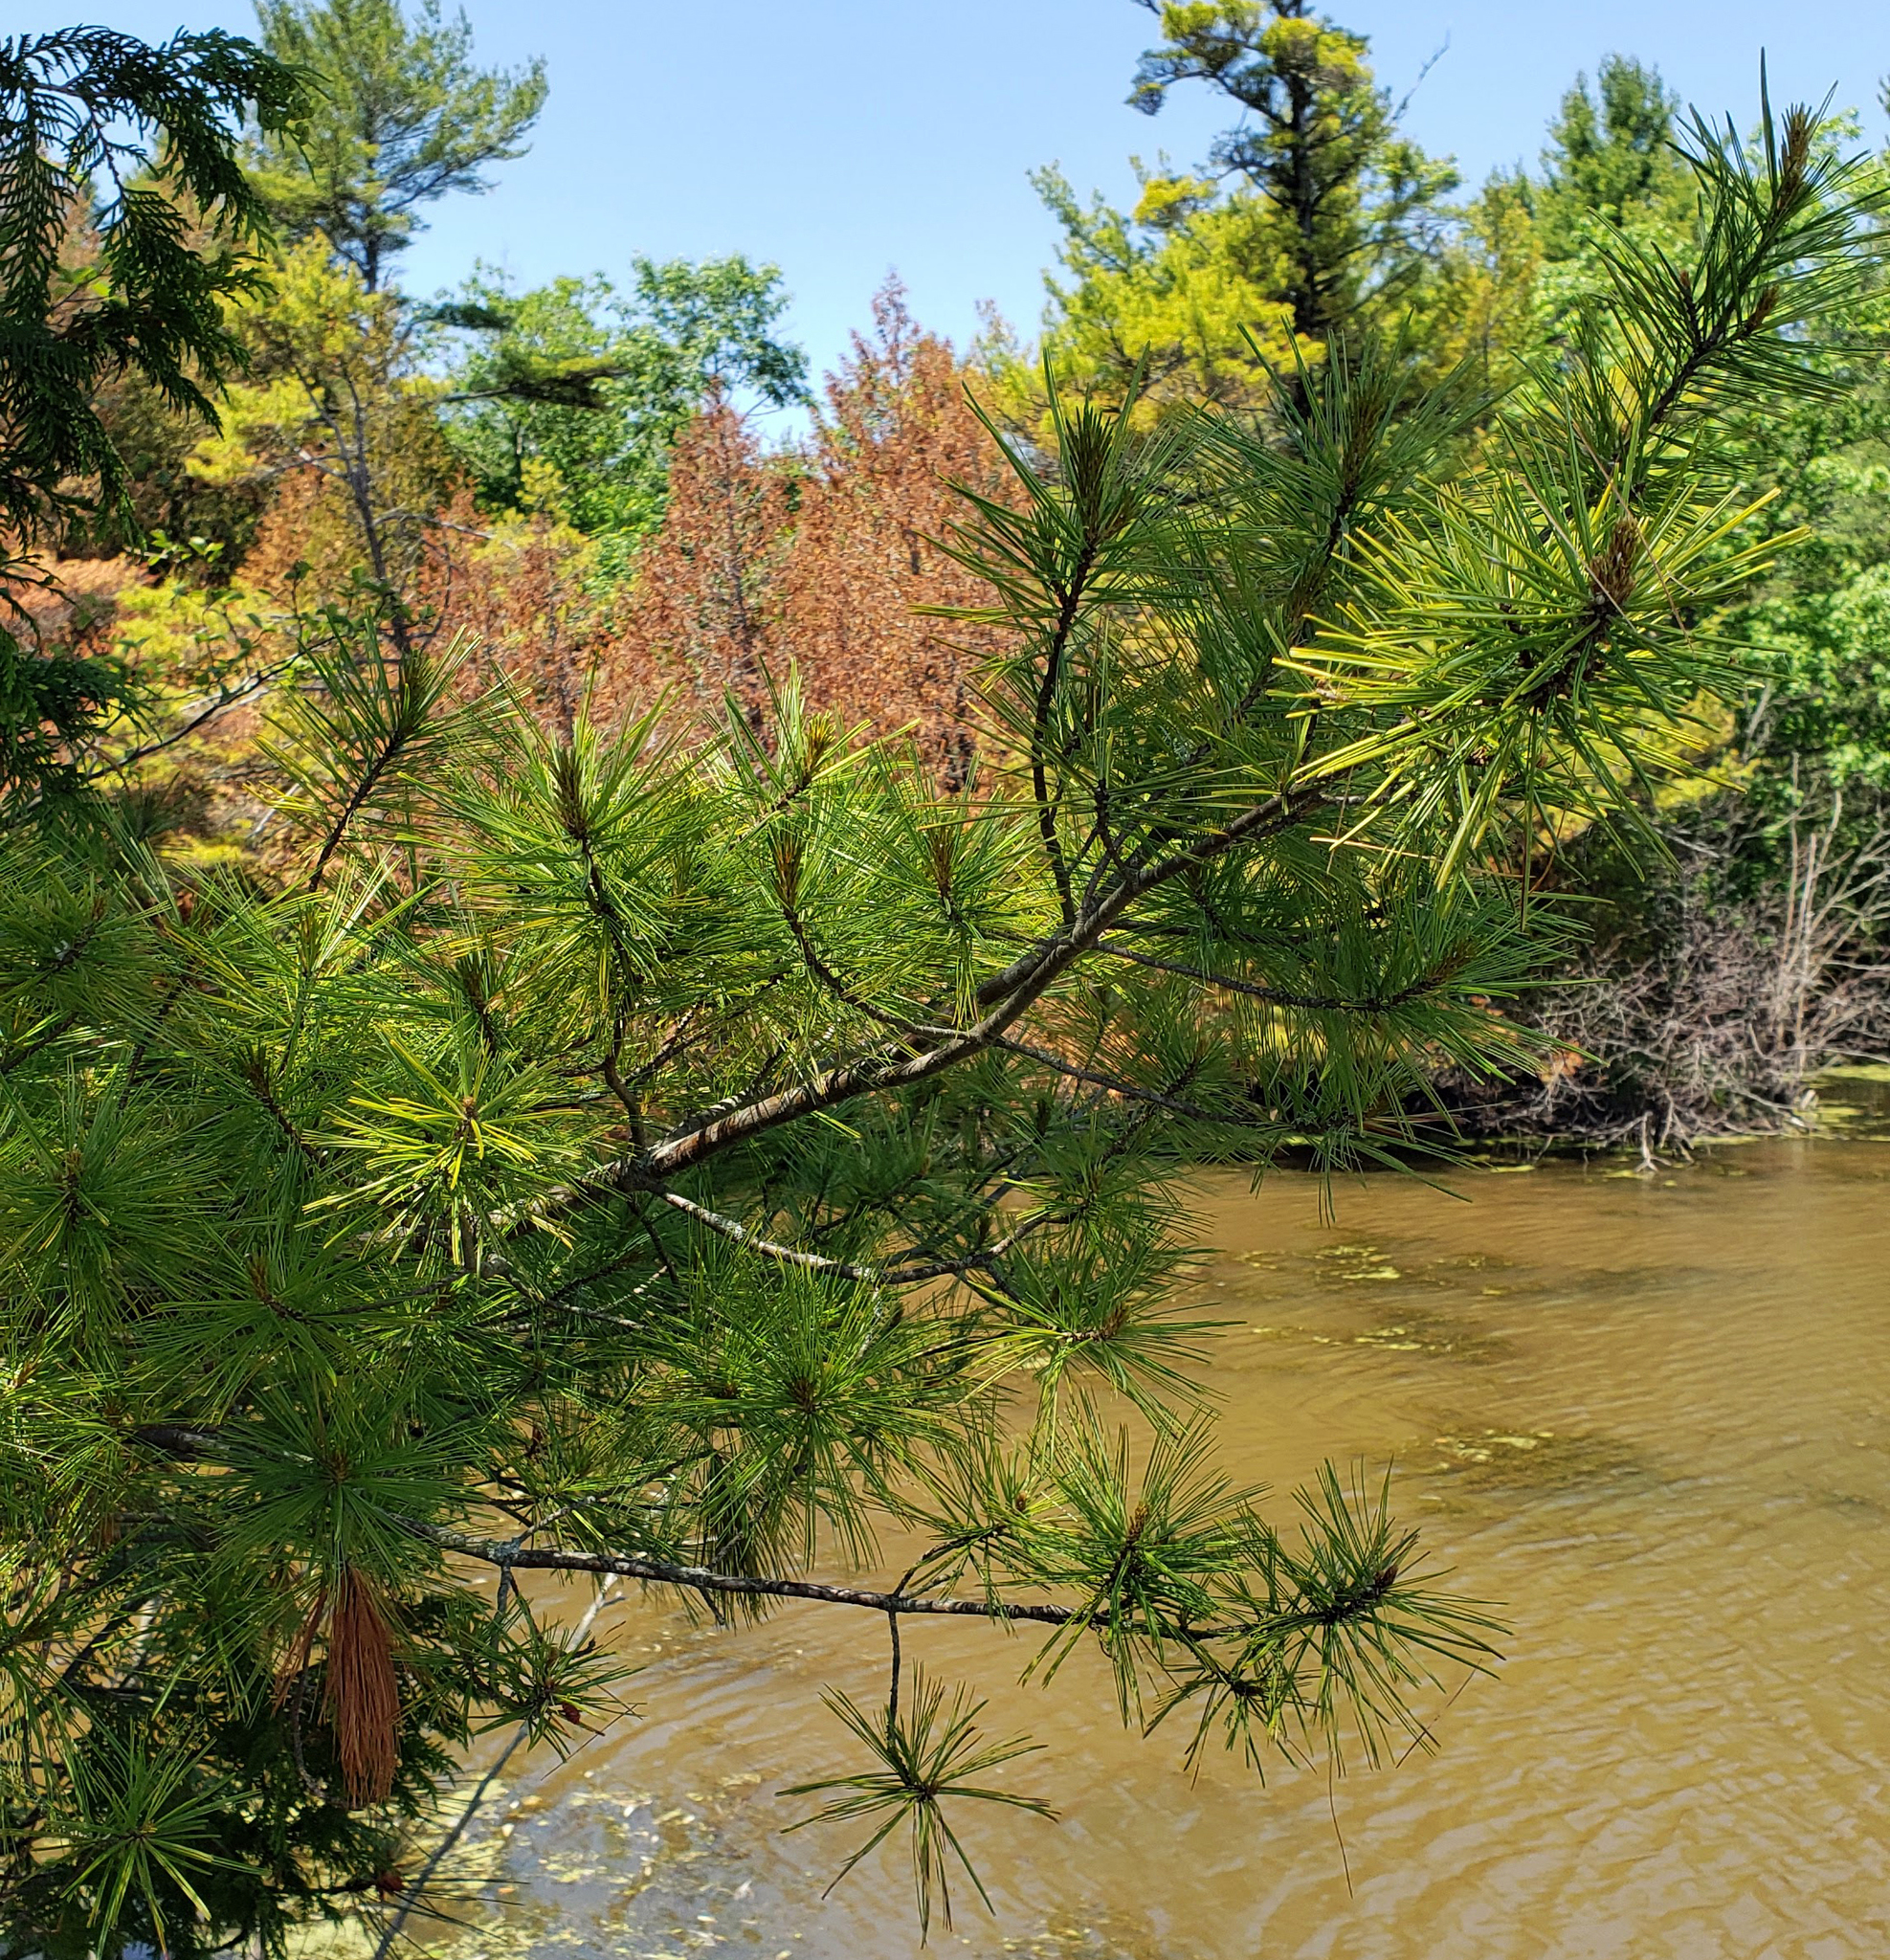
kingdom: Plantae
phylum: Tracheophyta
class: Pinopsida
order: Pinales
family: Pinaceae
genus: Pinus
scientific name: Pinus strobus
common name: Weymouth pine
